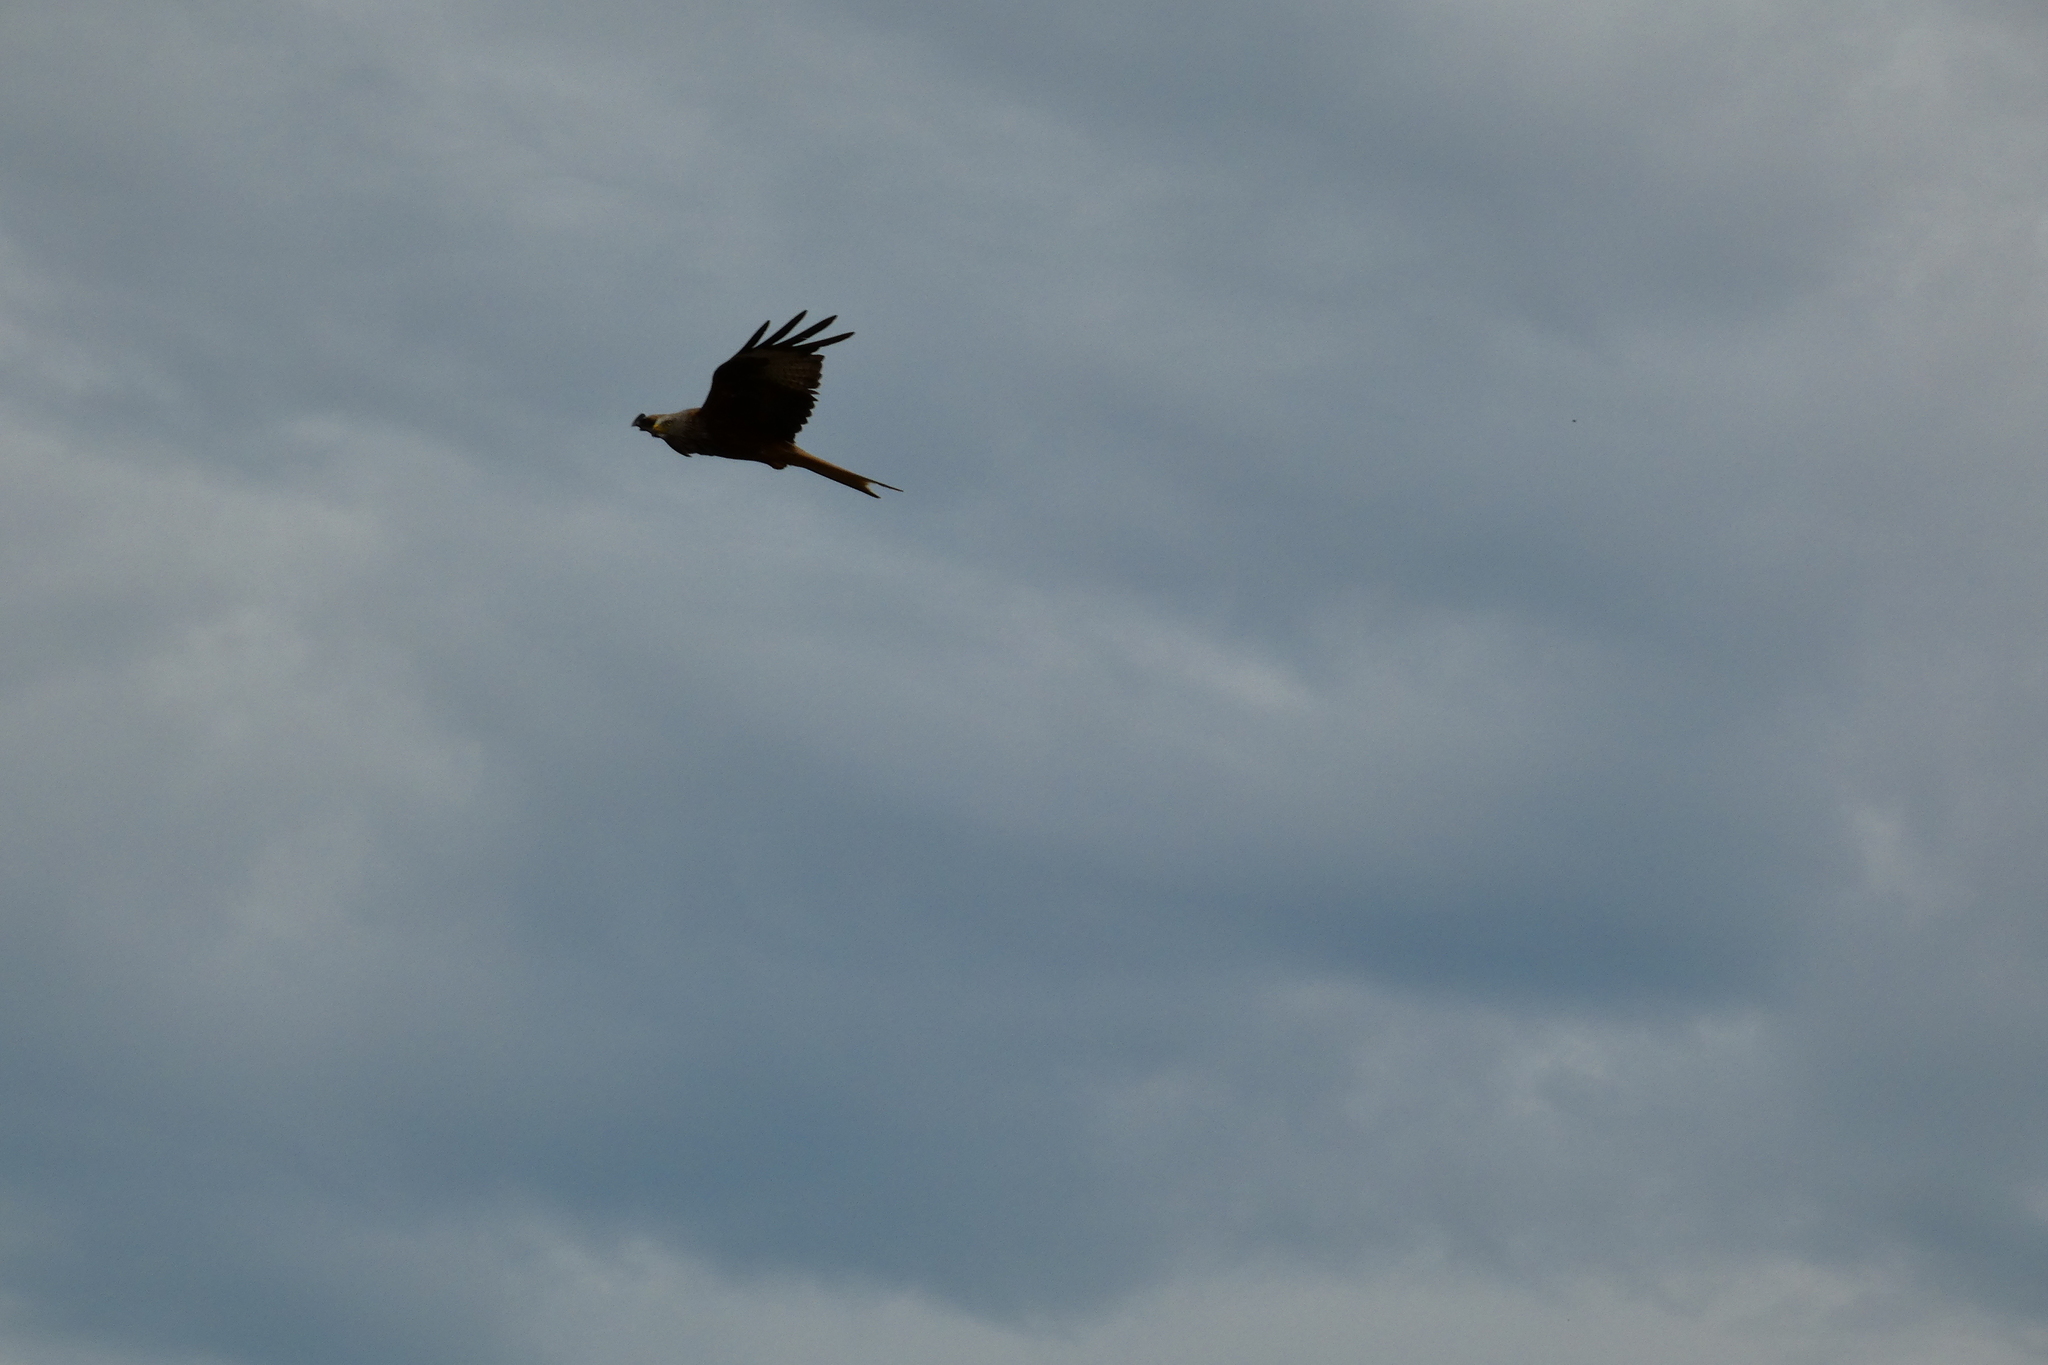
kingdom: Animalia
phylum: Chordata
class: Aves
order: Accipitriformes
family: Accipitridae
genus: Milvus
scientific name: Milvus milvus
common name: Red kite
